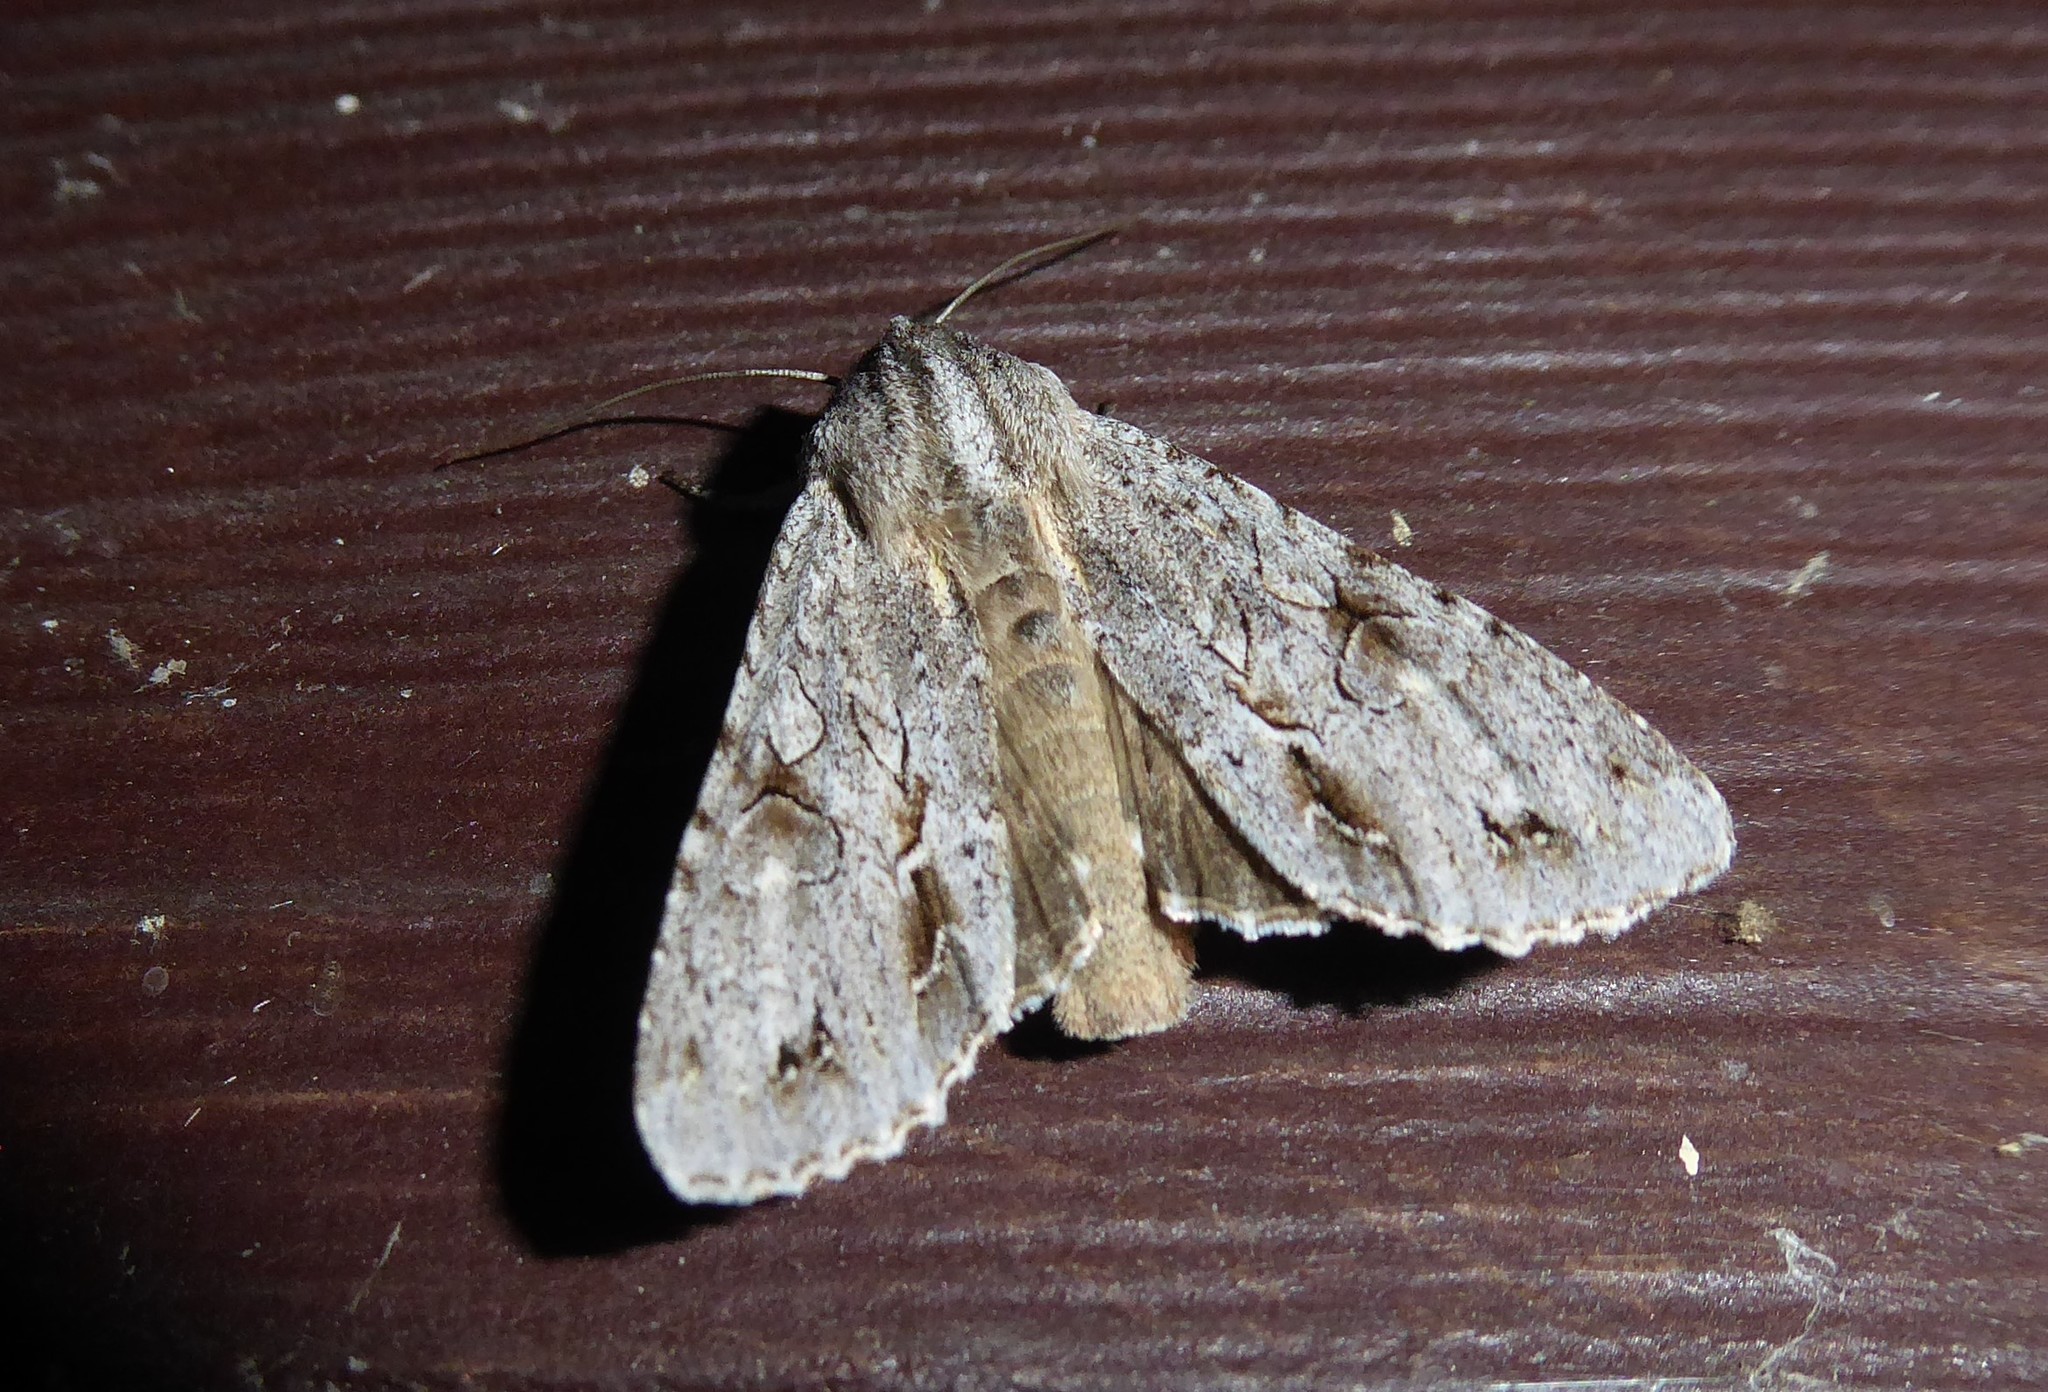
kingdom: Animalia
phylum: Arthropoda
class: Insecta
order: Lepidoptera
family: Noctuidae
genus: Ichneutica
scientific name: Ichneutica
